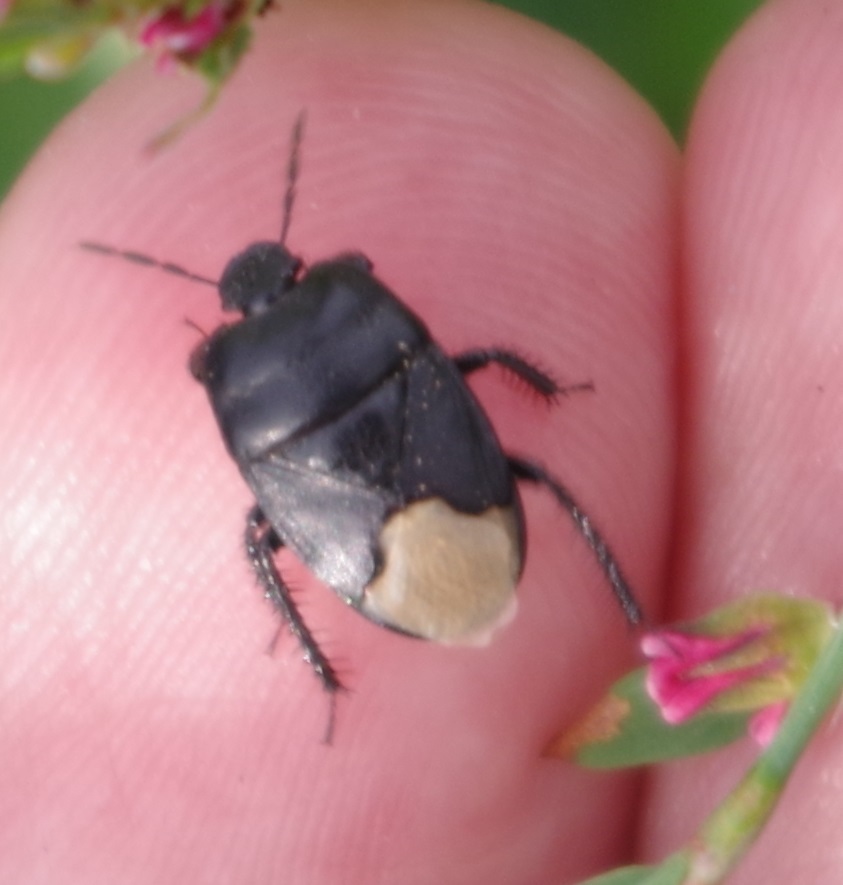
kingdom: Animalia
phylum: Arthropoda
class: Insecta
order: Hemiptera
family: Cydnidae
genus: Cydnus
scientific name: Cydnus aterrimus
